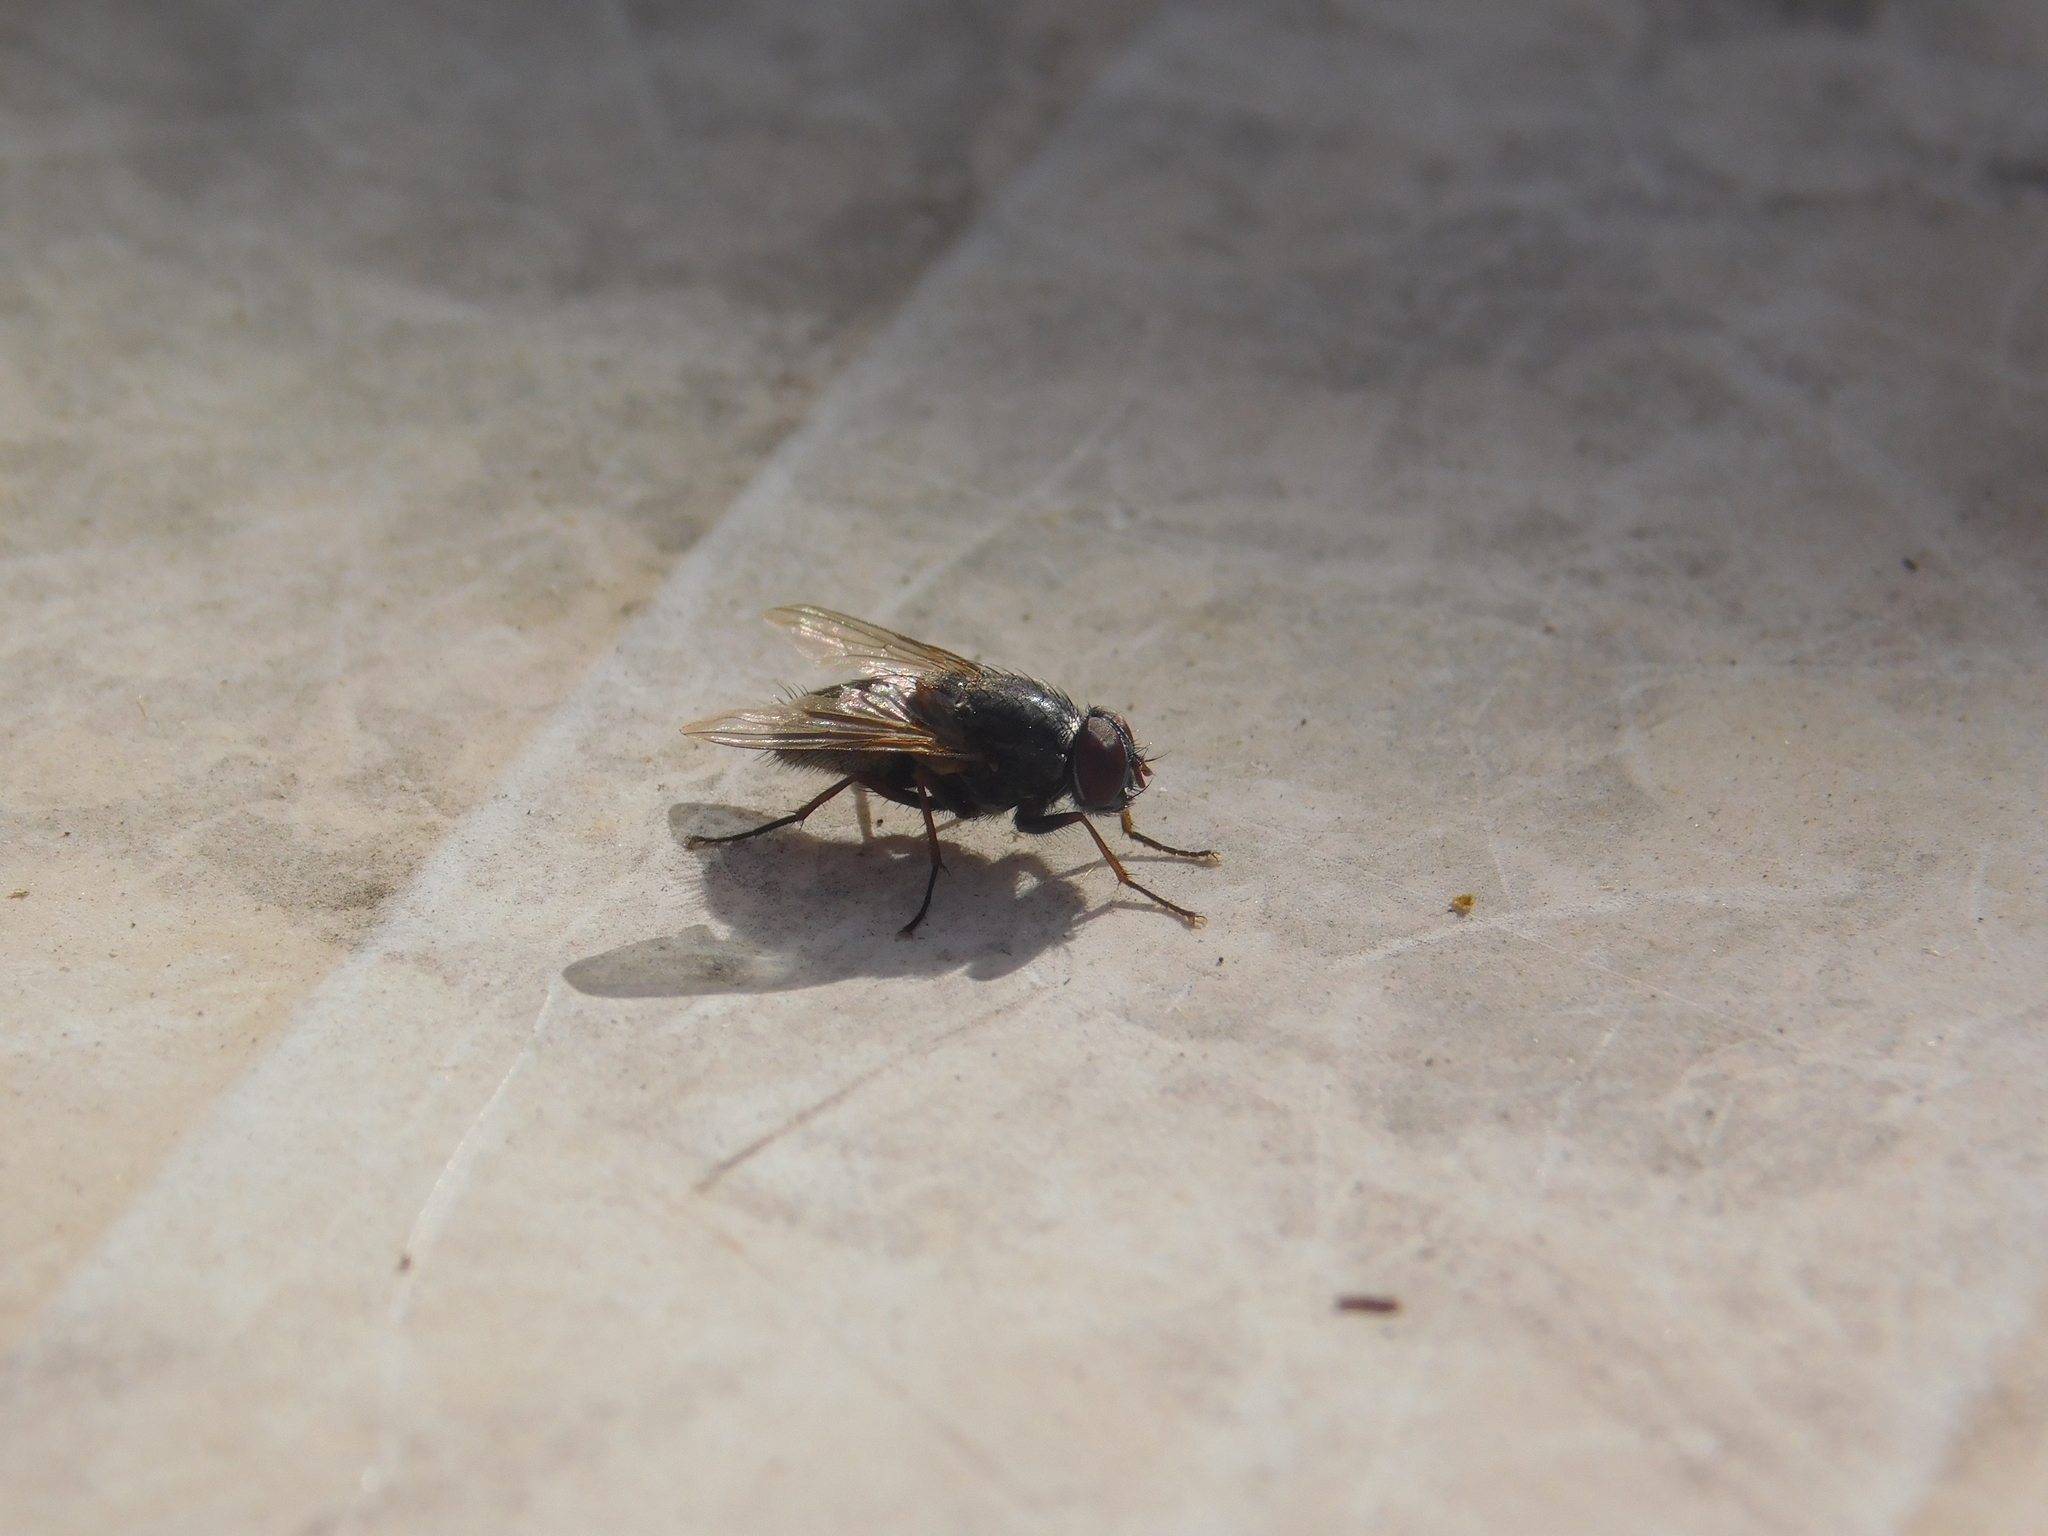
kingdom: Animalia
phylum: Arthropoda
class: Insecta
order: Diptera
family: Muscidae
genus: Muscina
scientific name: Muscina stabulans
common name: False stable fly
